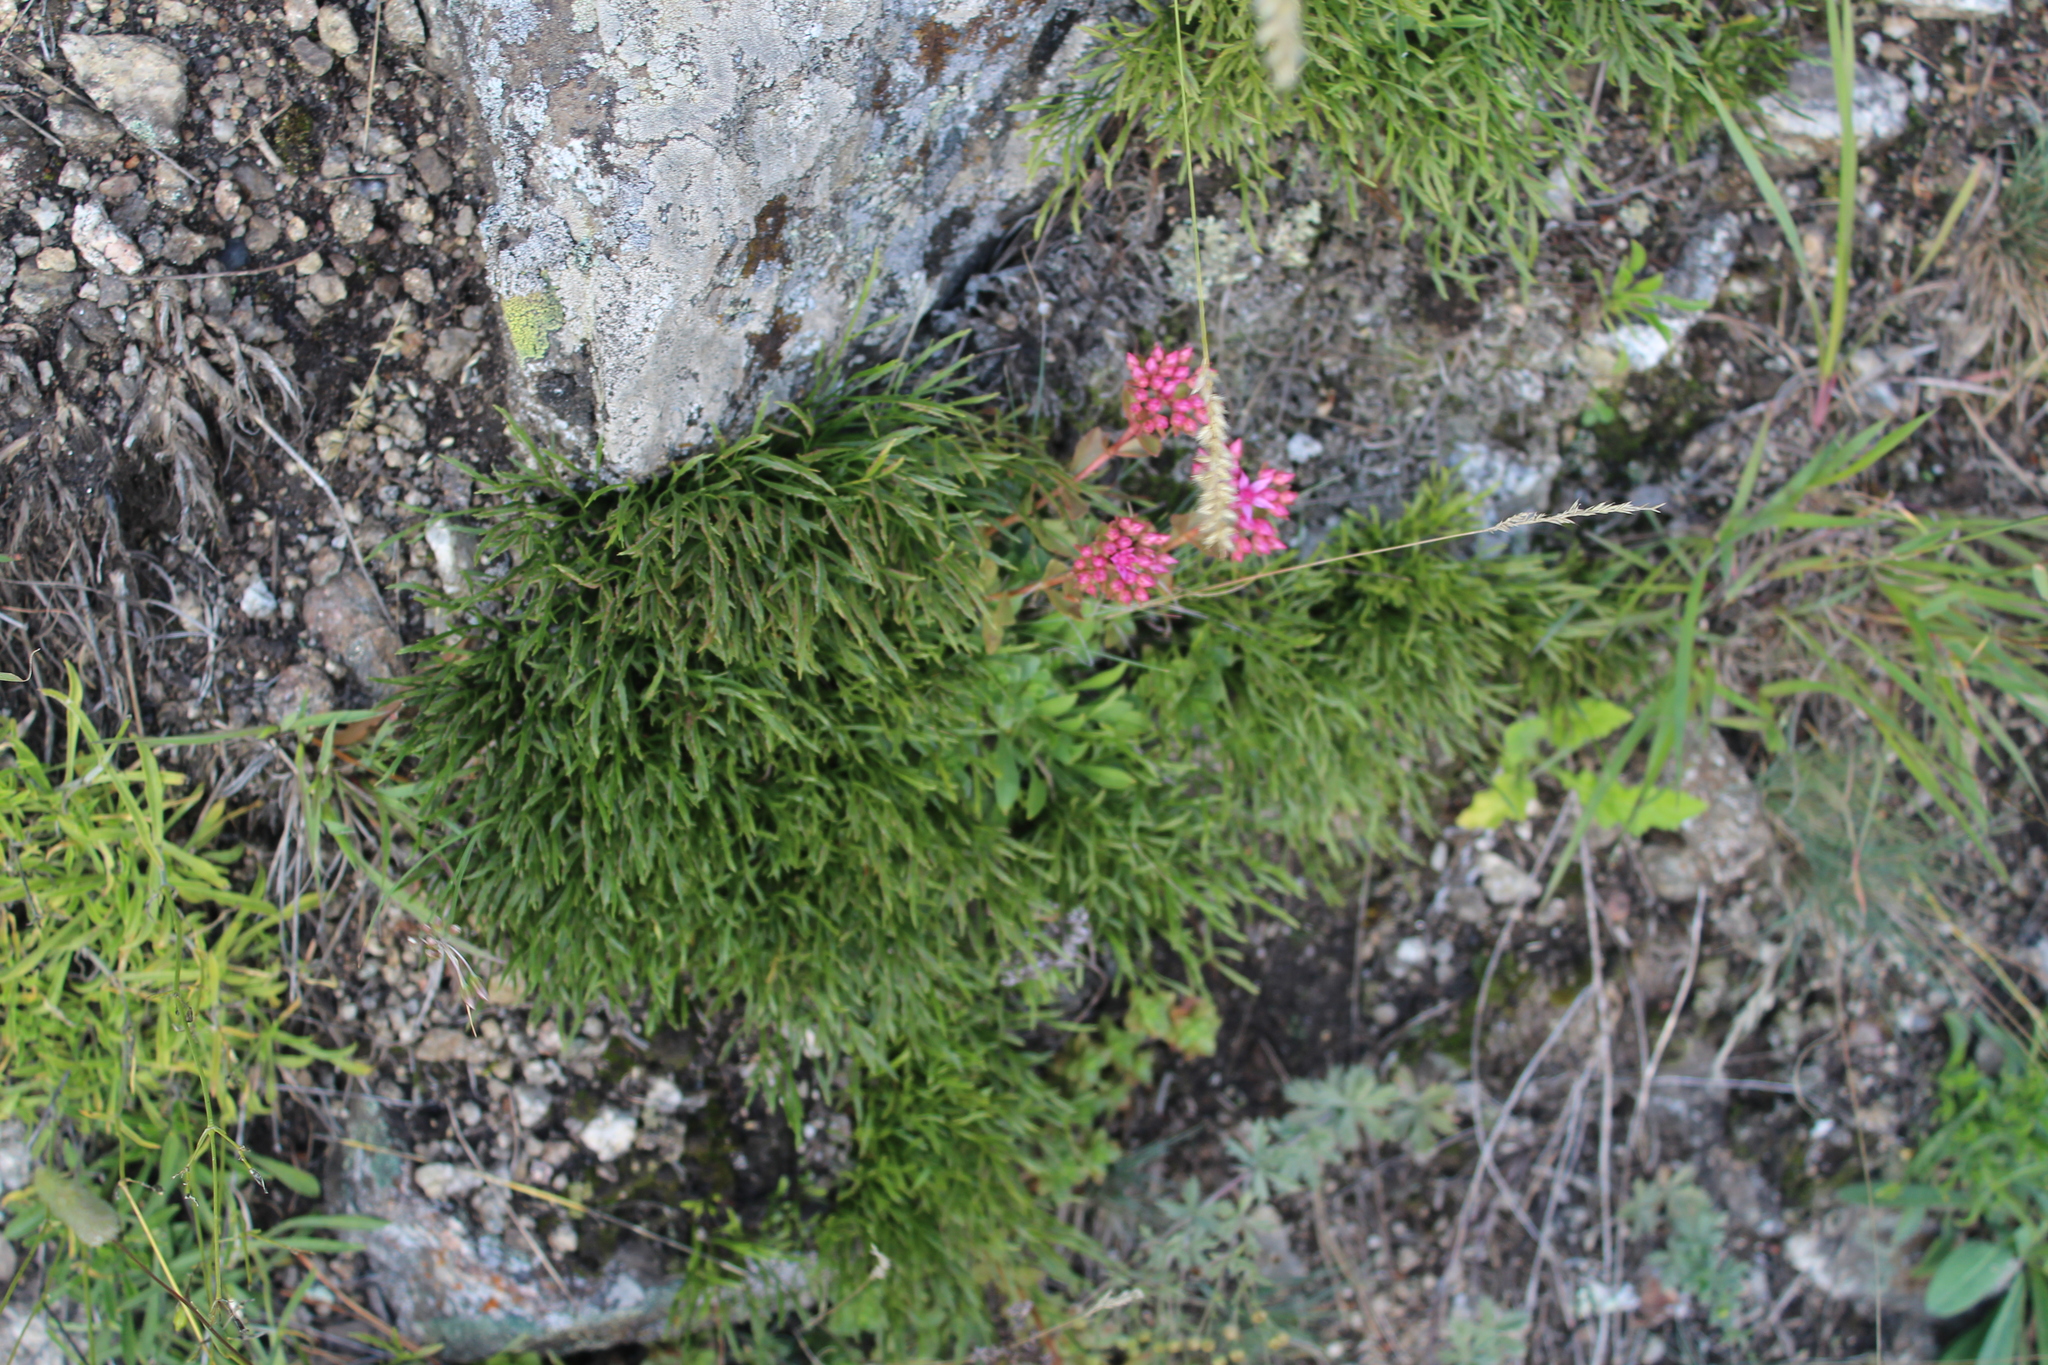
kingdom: Plantae
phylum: Tracheophyta
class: Polypodiopsida
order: Polypodiales
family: Aspleniaceae
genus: Asplenium
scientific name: Asplenium septentrionale
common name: Forked spleenwort
